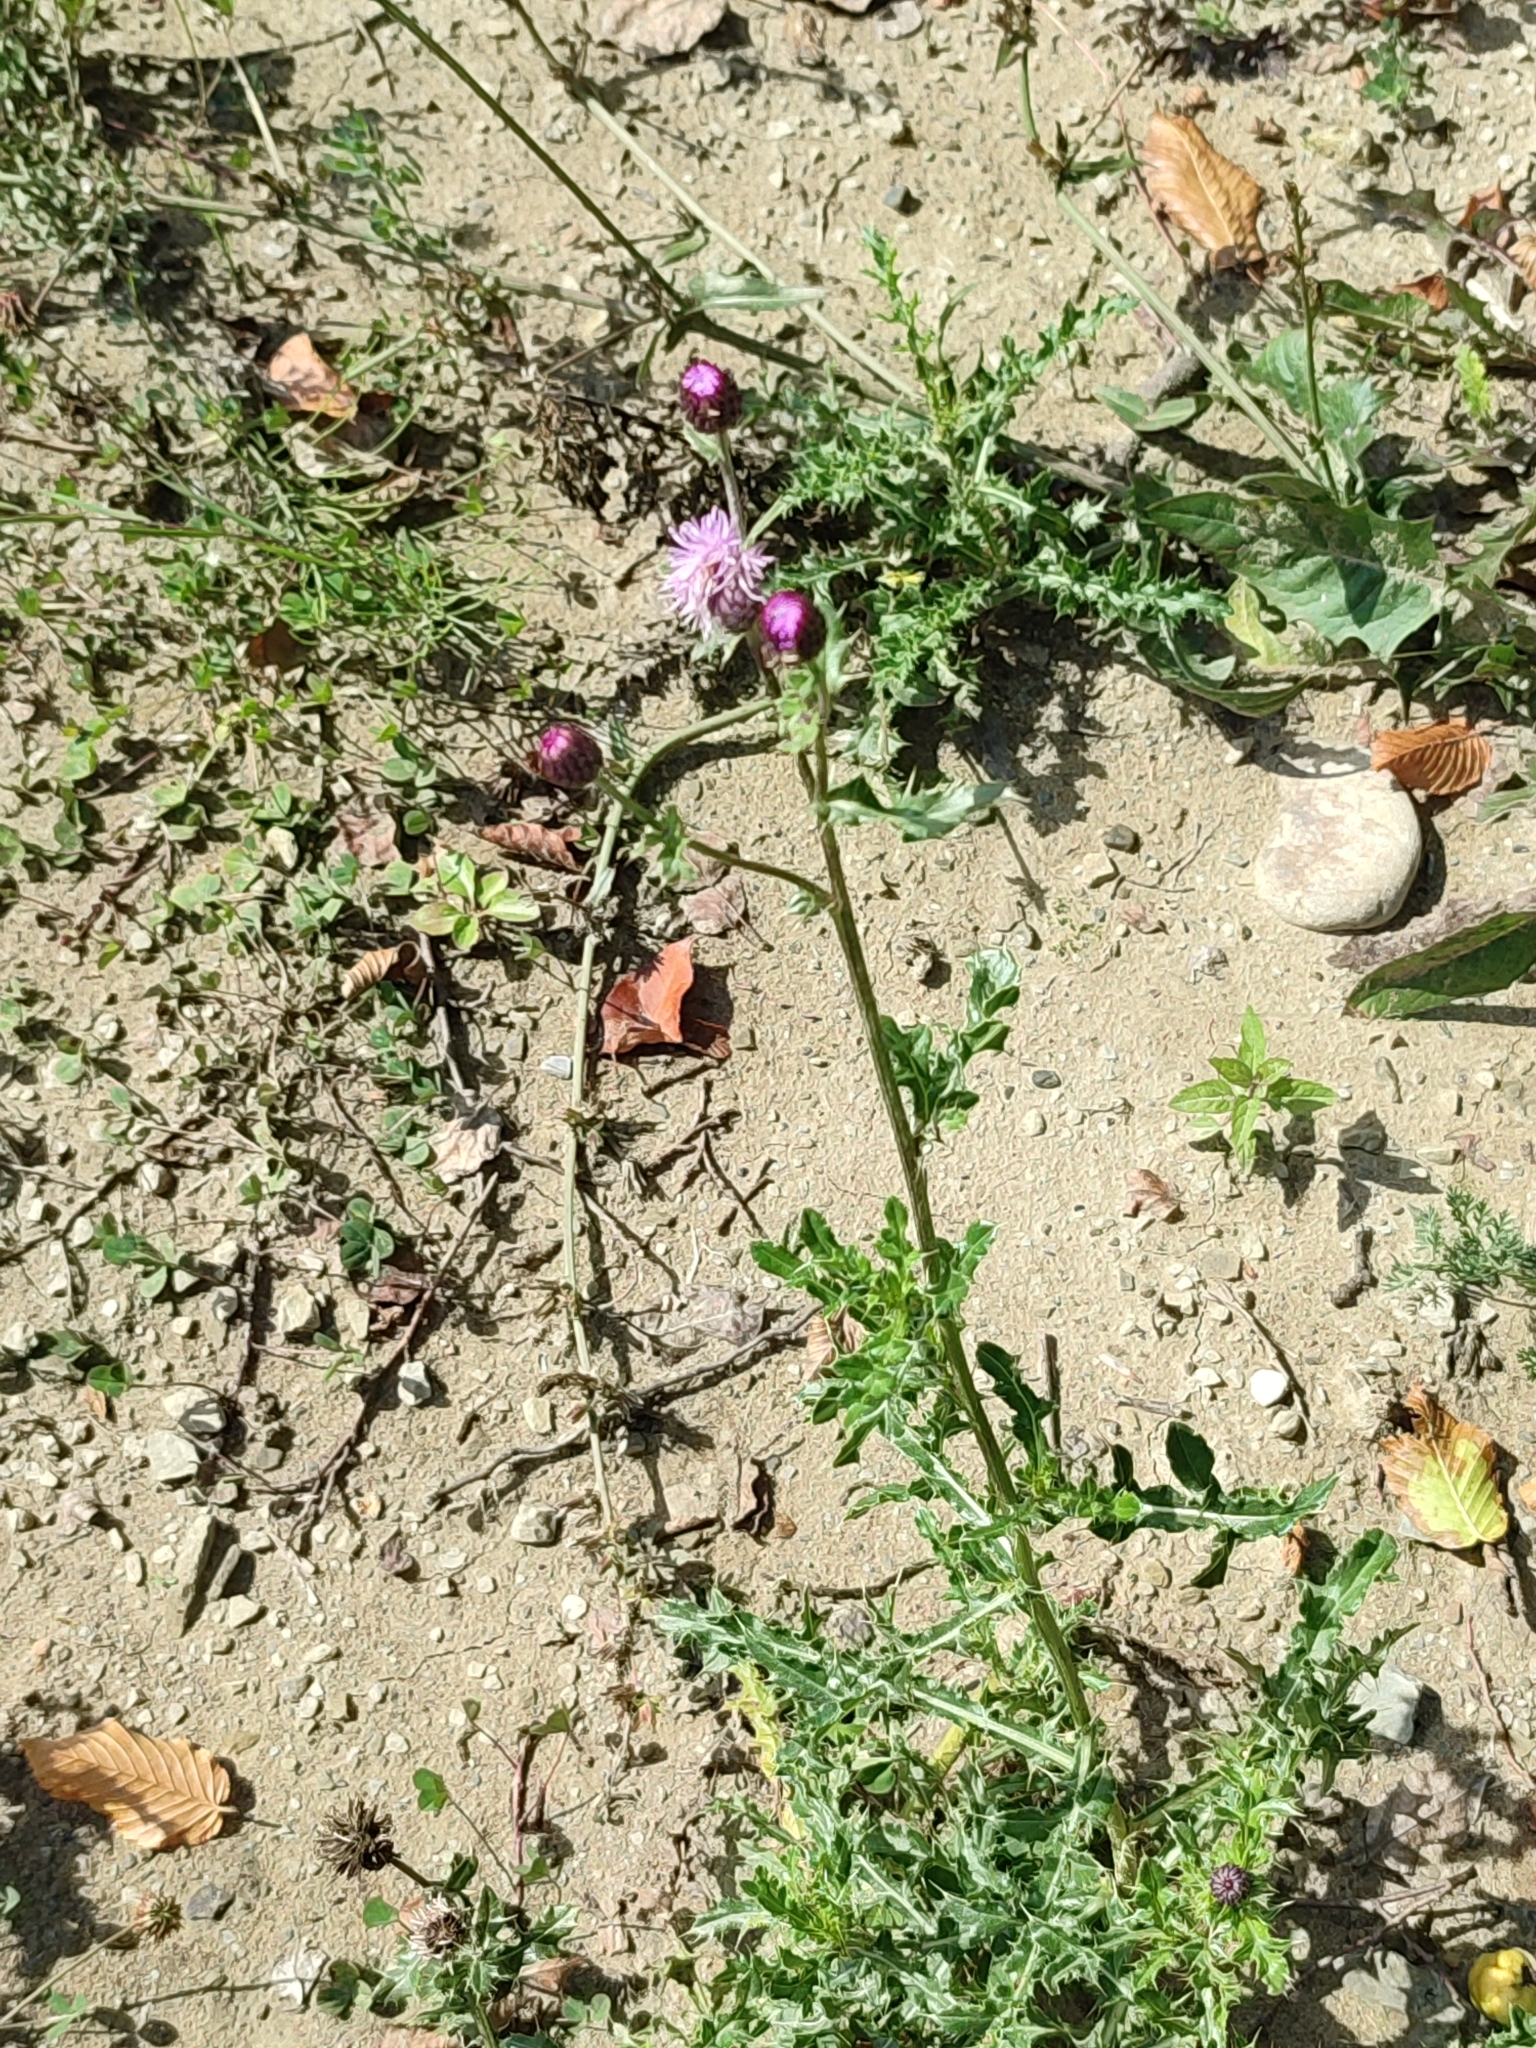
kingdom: Plantae
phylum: Tracheophyta
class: Magnoliopsida
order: Asterales
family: Asteraceae
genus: Cirsium
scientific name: Cirsium arvense
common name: Creeping thistle
